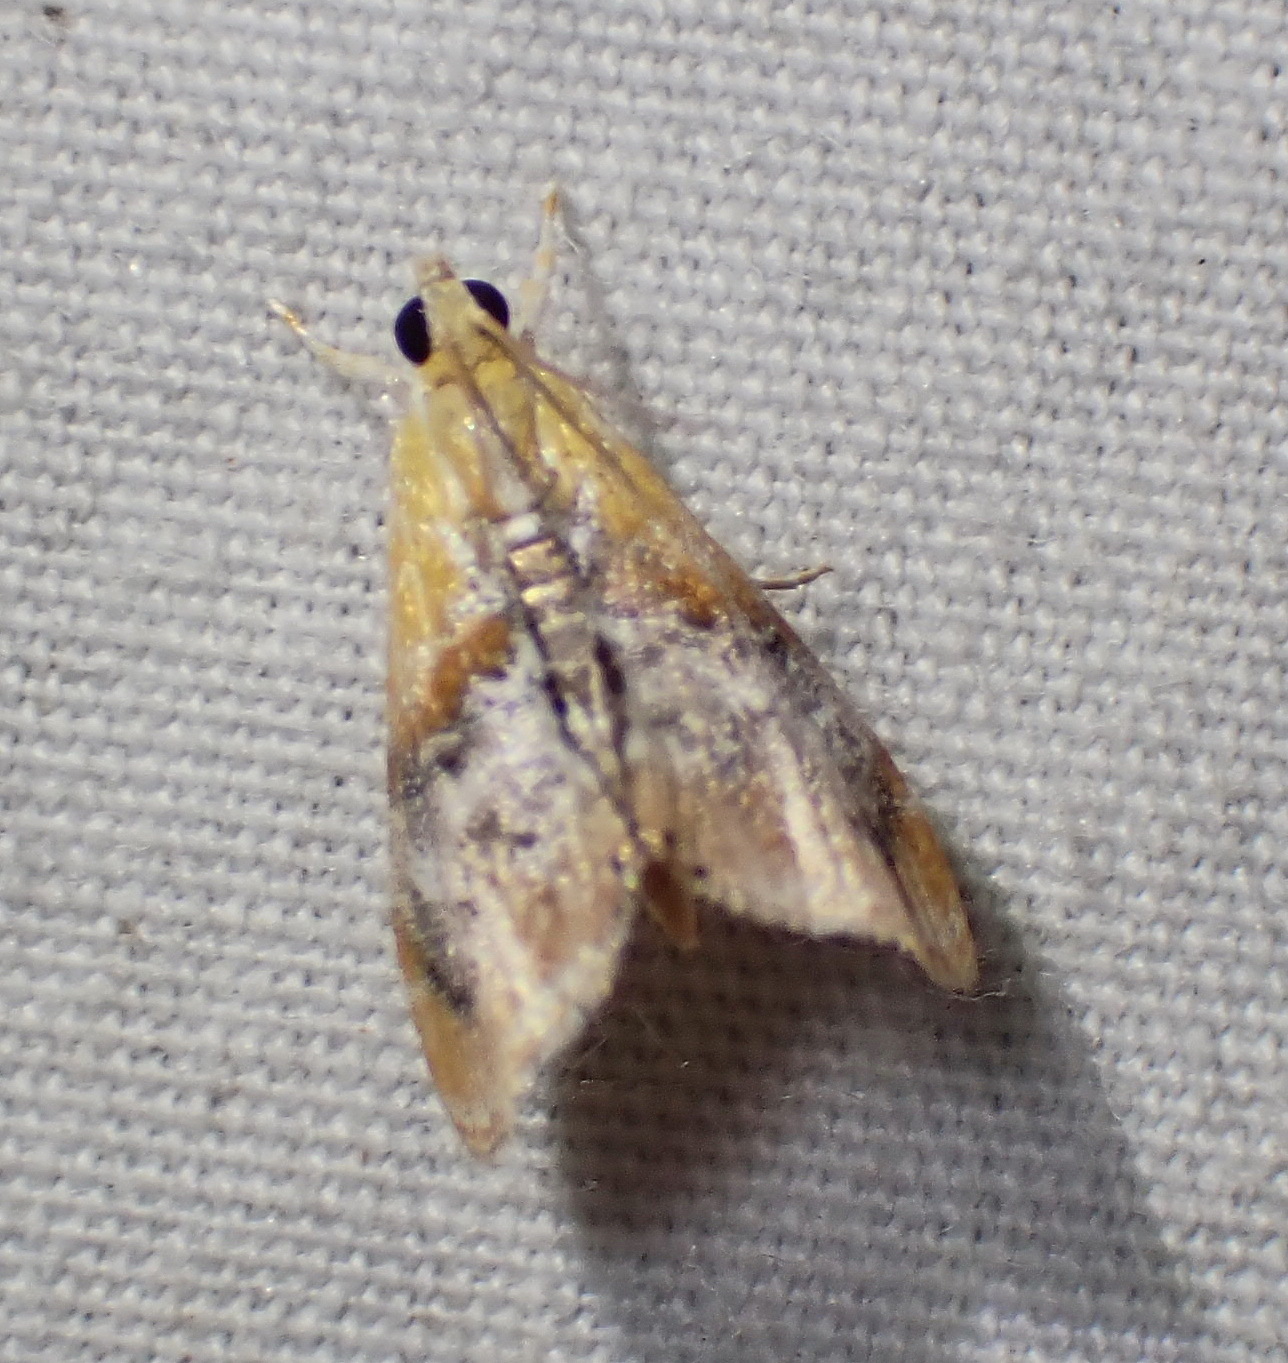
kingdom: Animalia
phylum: Arthropoda
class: Insecta
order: Lepidoptera
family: Crambidae
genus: Dicymolomia
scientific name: Dicymolomia julianalis
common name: Julia's dicymolomia moth
